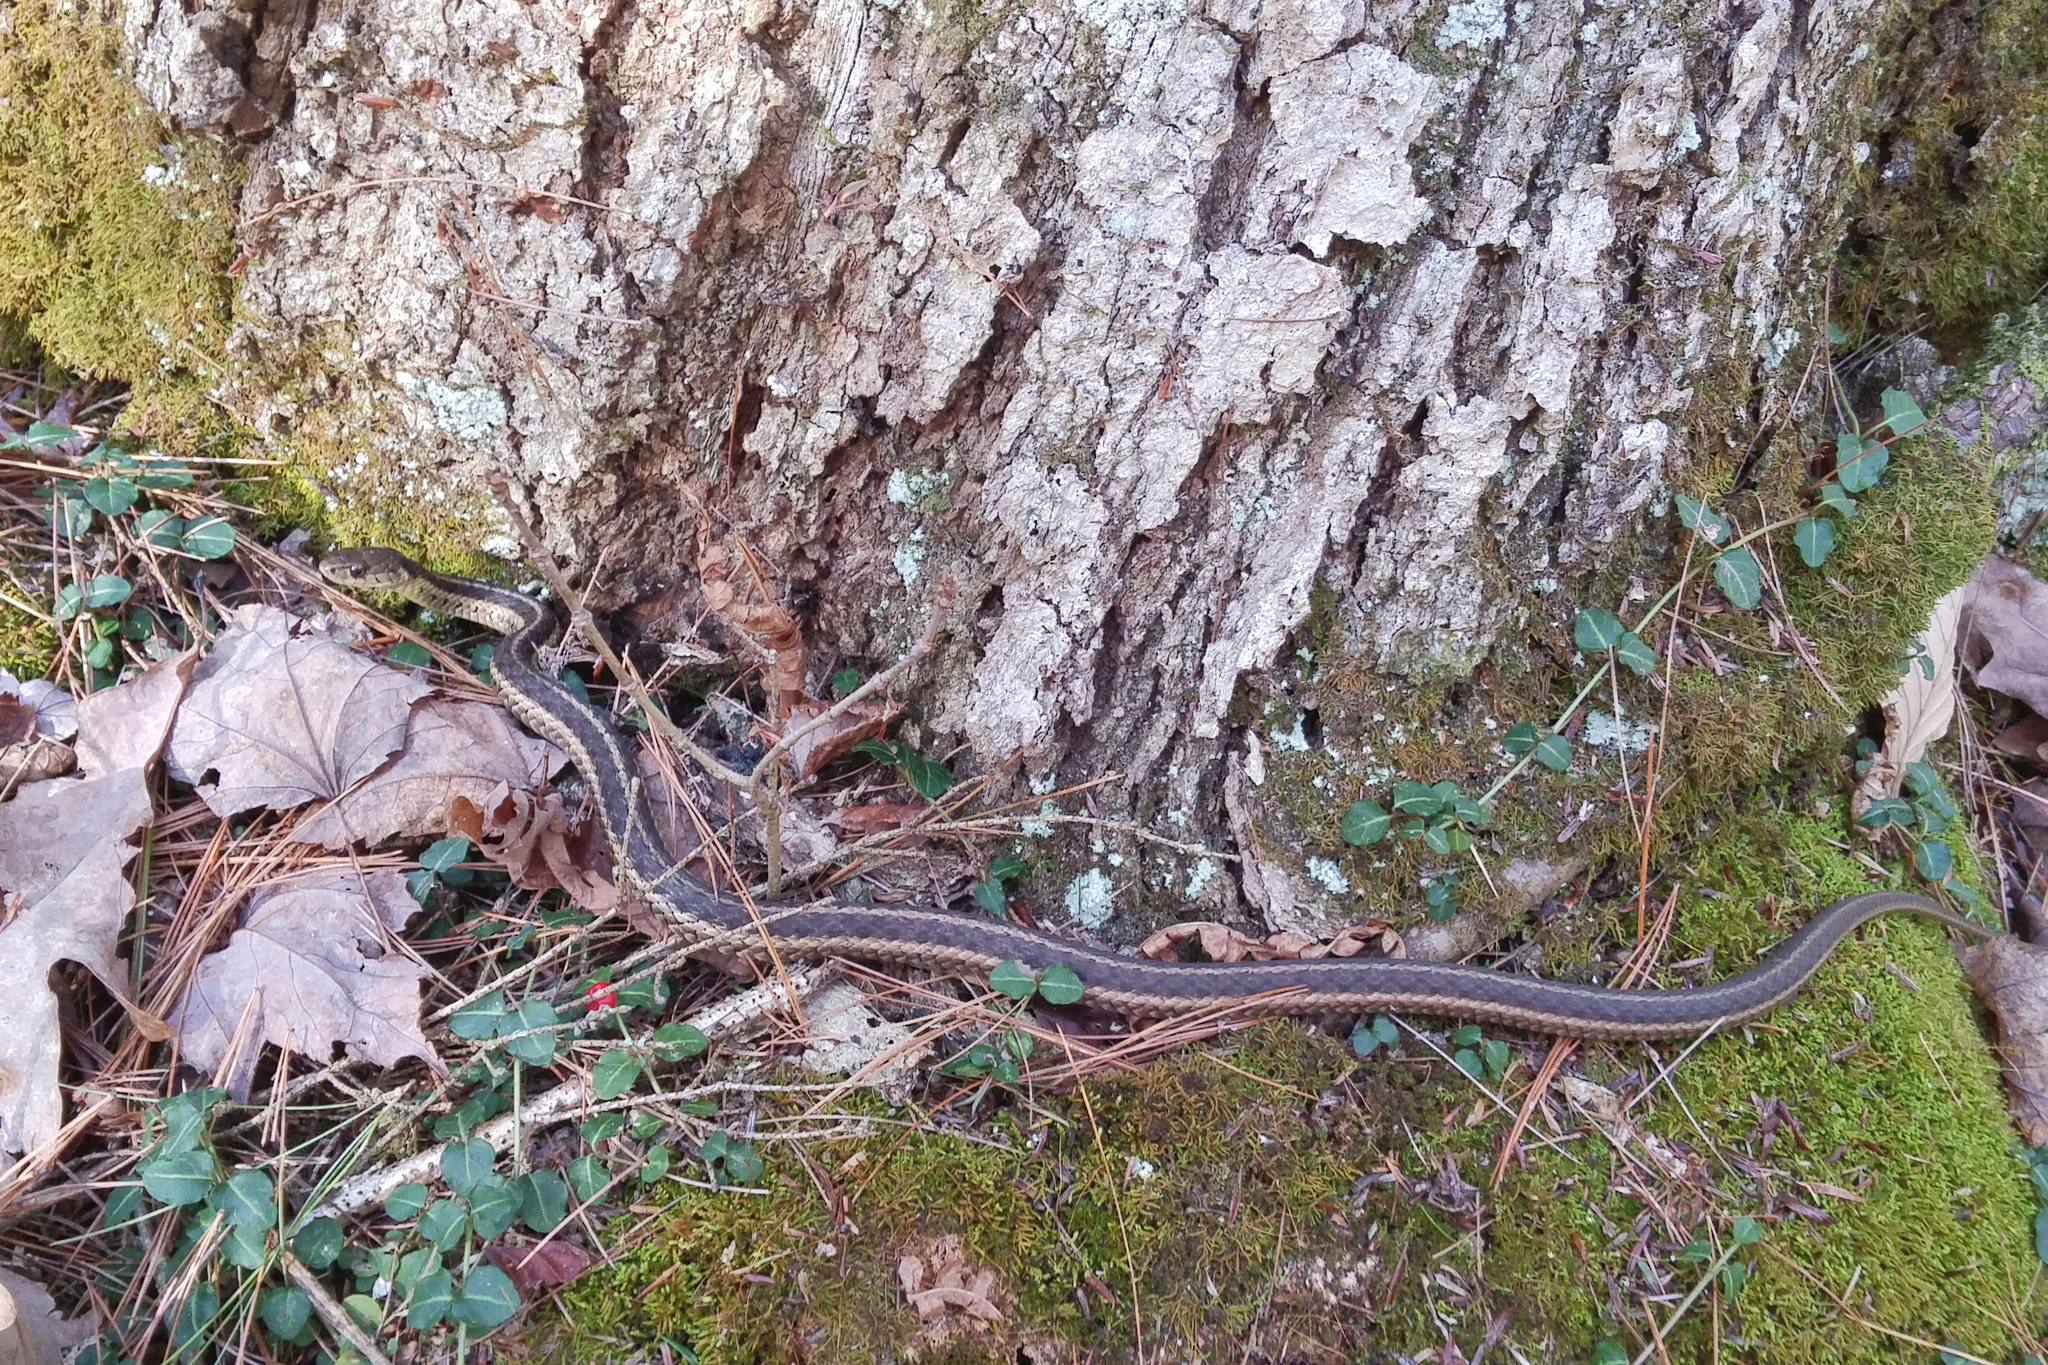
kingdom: Animalia
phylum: Chordata
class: Squamata
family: Colubridae
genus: Thamnophis
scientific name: Thamnophis sirtalis
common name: Common garter snake
